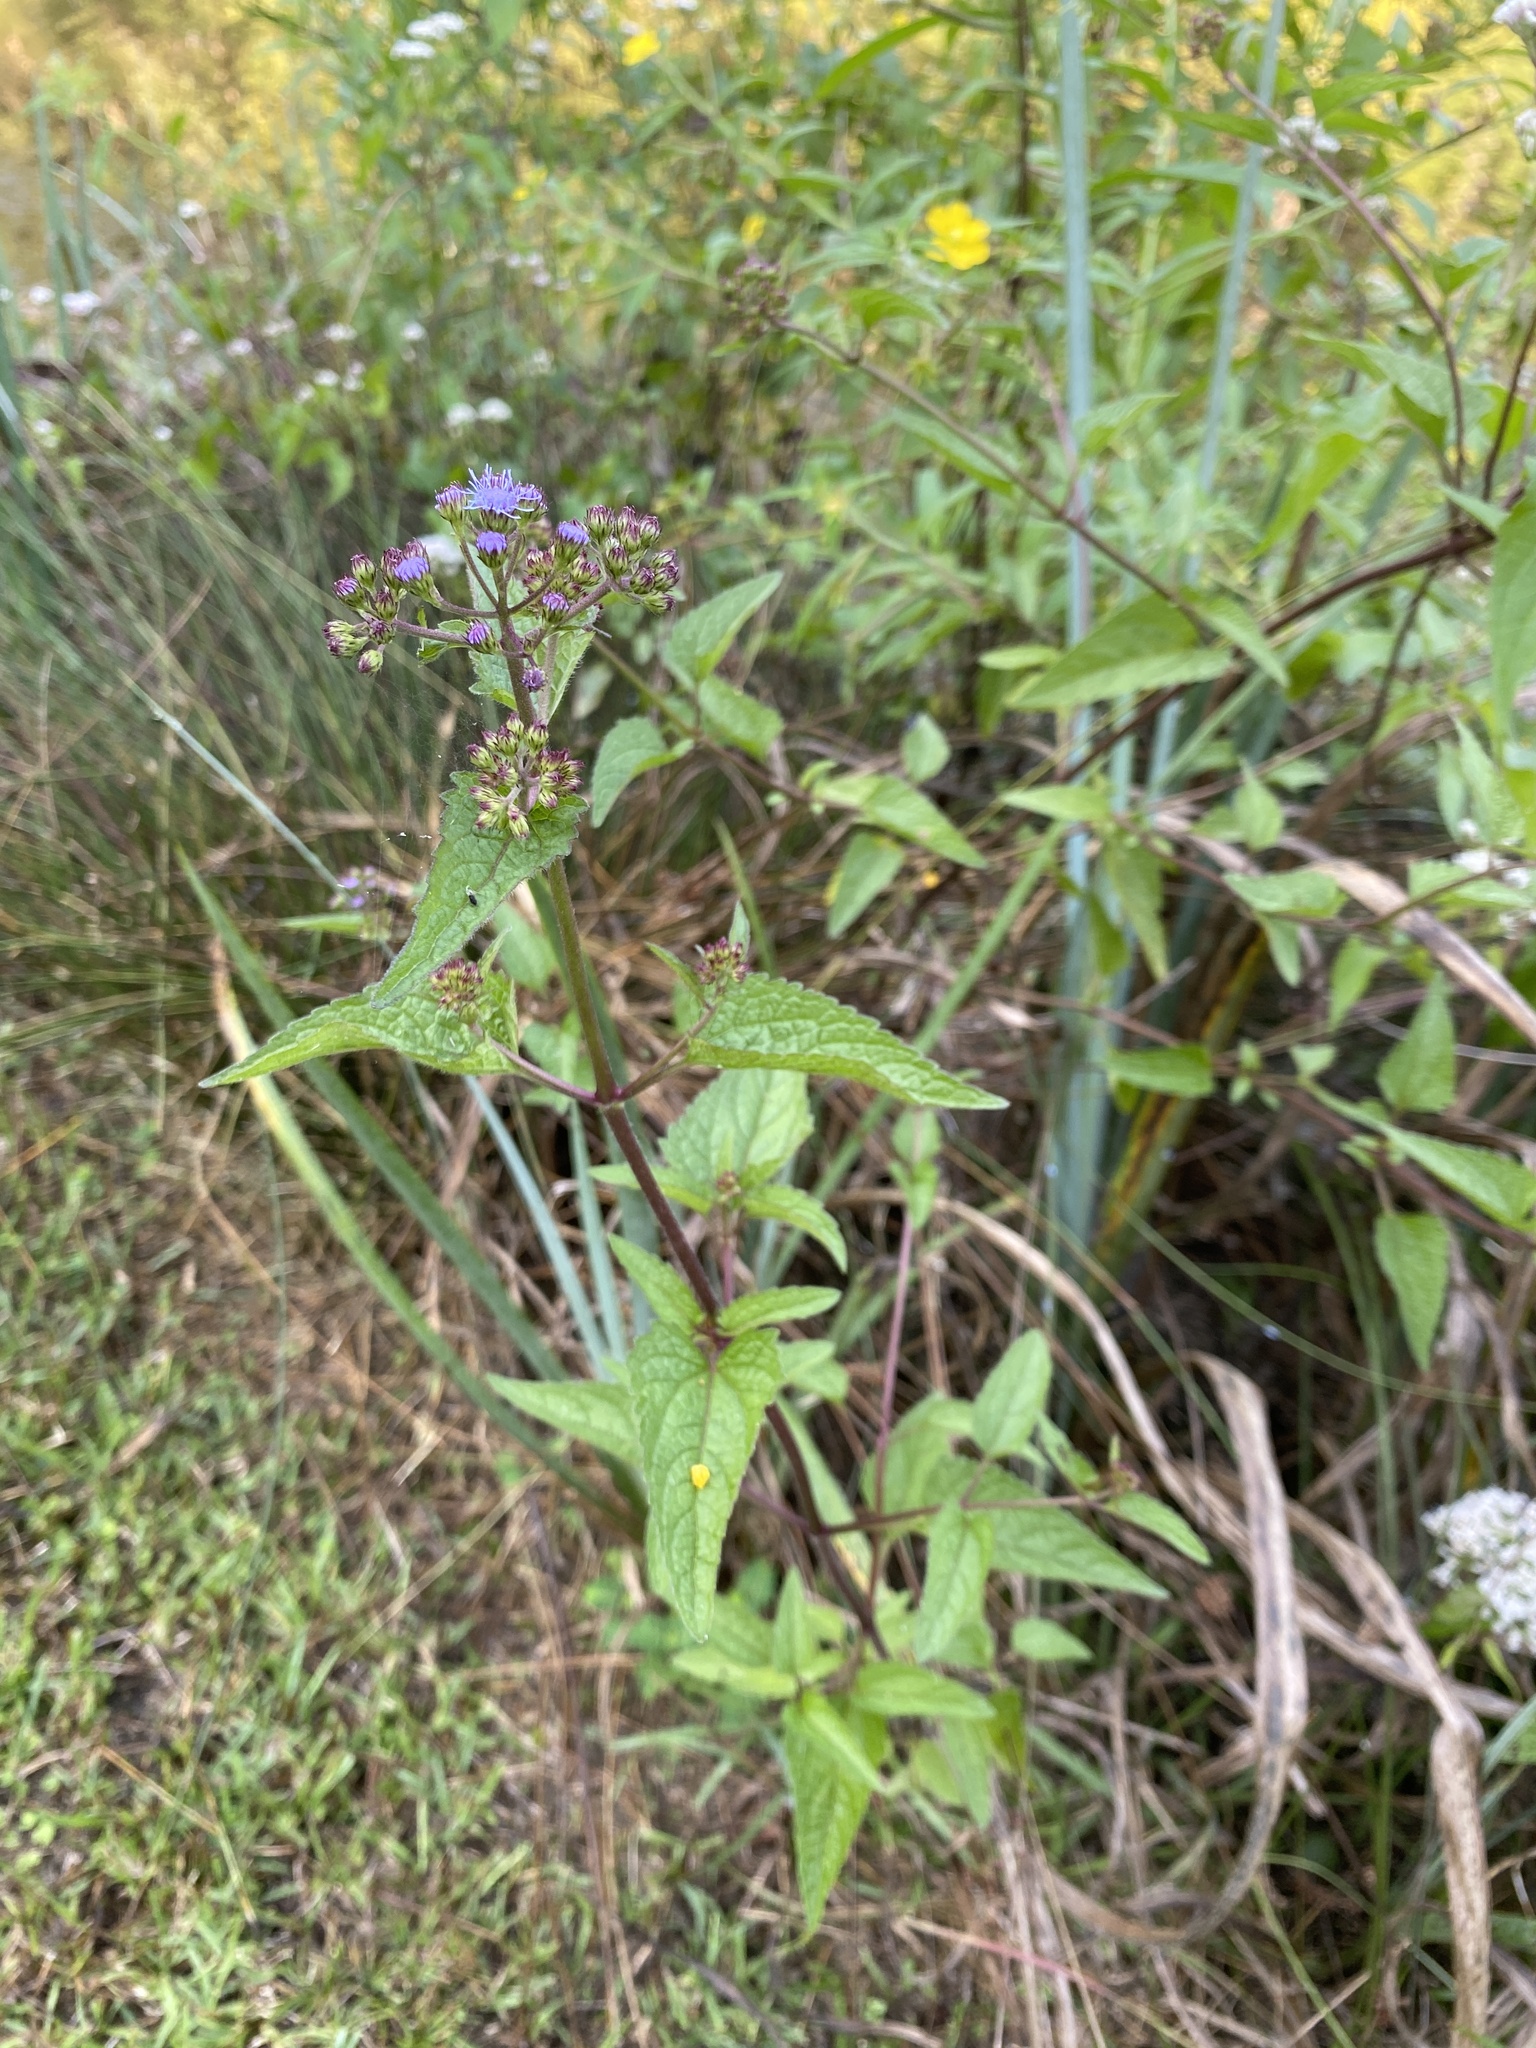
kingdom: Plantae
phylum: Tracheophyta
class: Magnoliopsida
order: Asterales
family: Asteraceae
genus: Conoclinium
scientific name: Conoclinium coelestinum
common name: Blue mistflower
